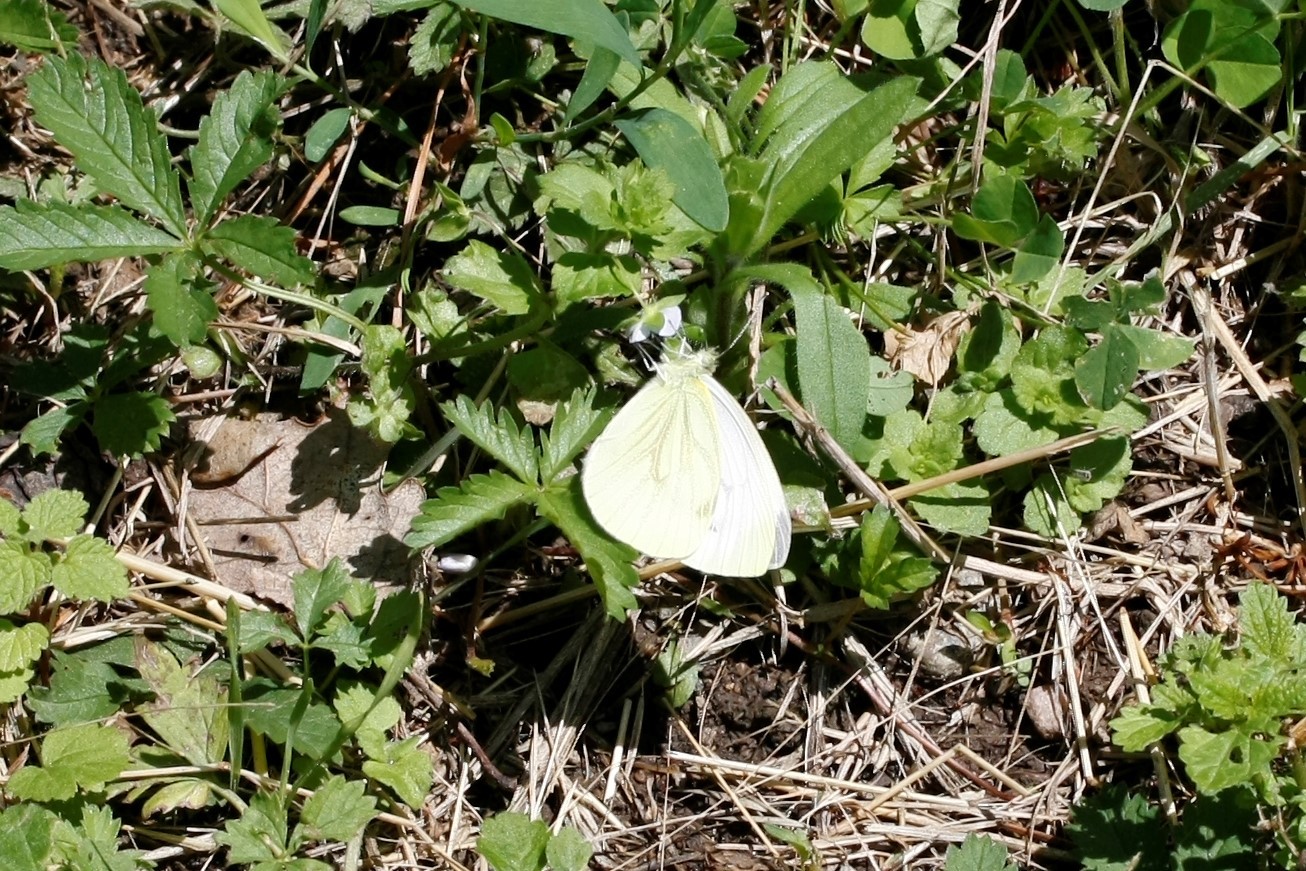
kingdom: Animalia
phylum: Arthropoda
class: Insecta
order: Lepidoptera
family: Pieridae
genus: Pieris
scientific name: Pieris napi
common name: Green-veined white
